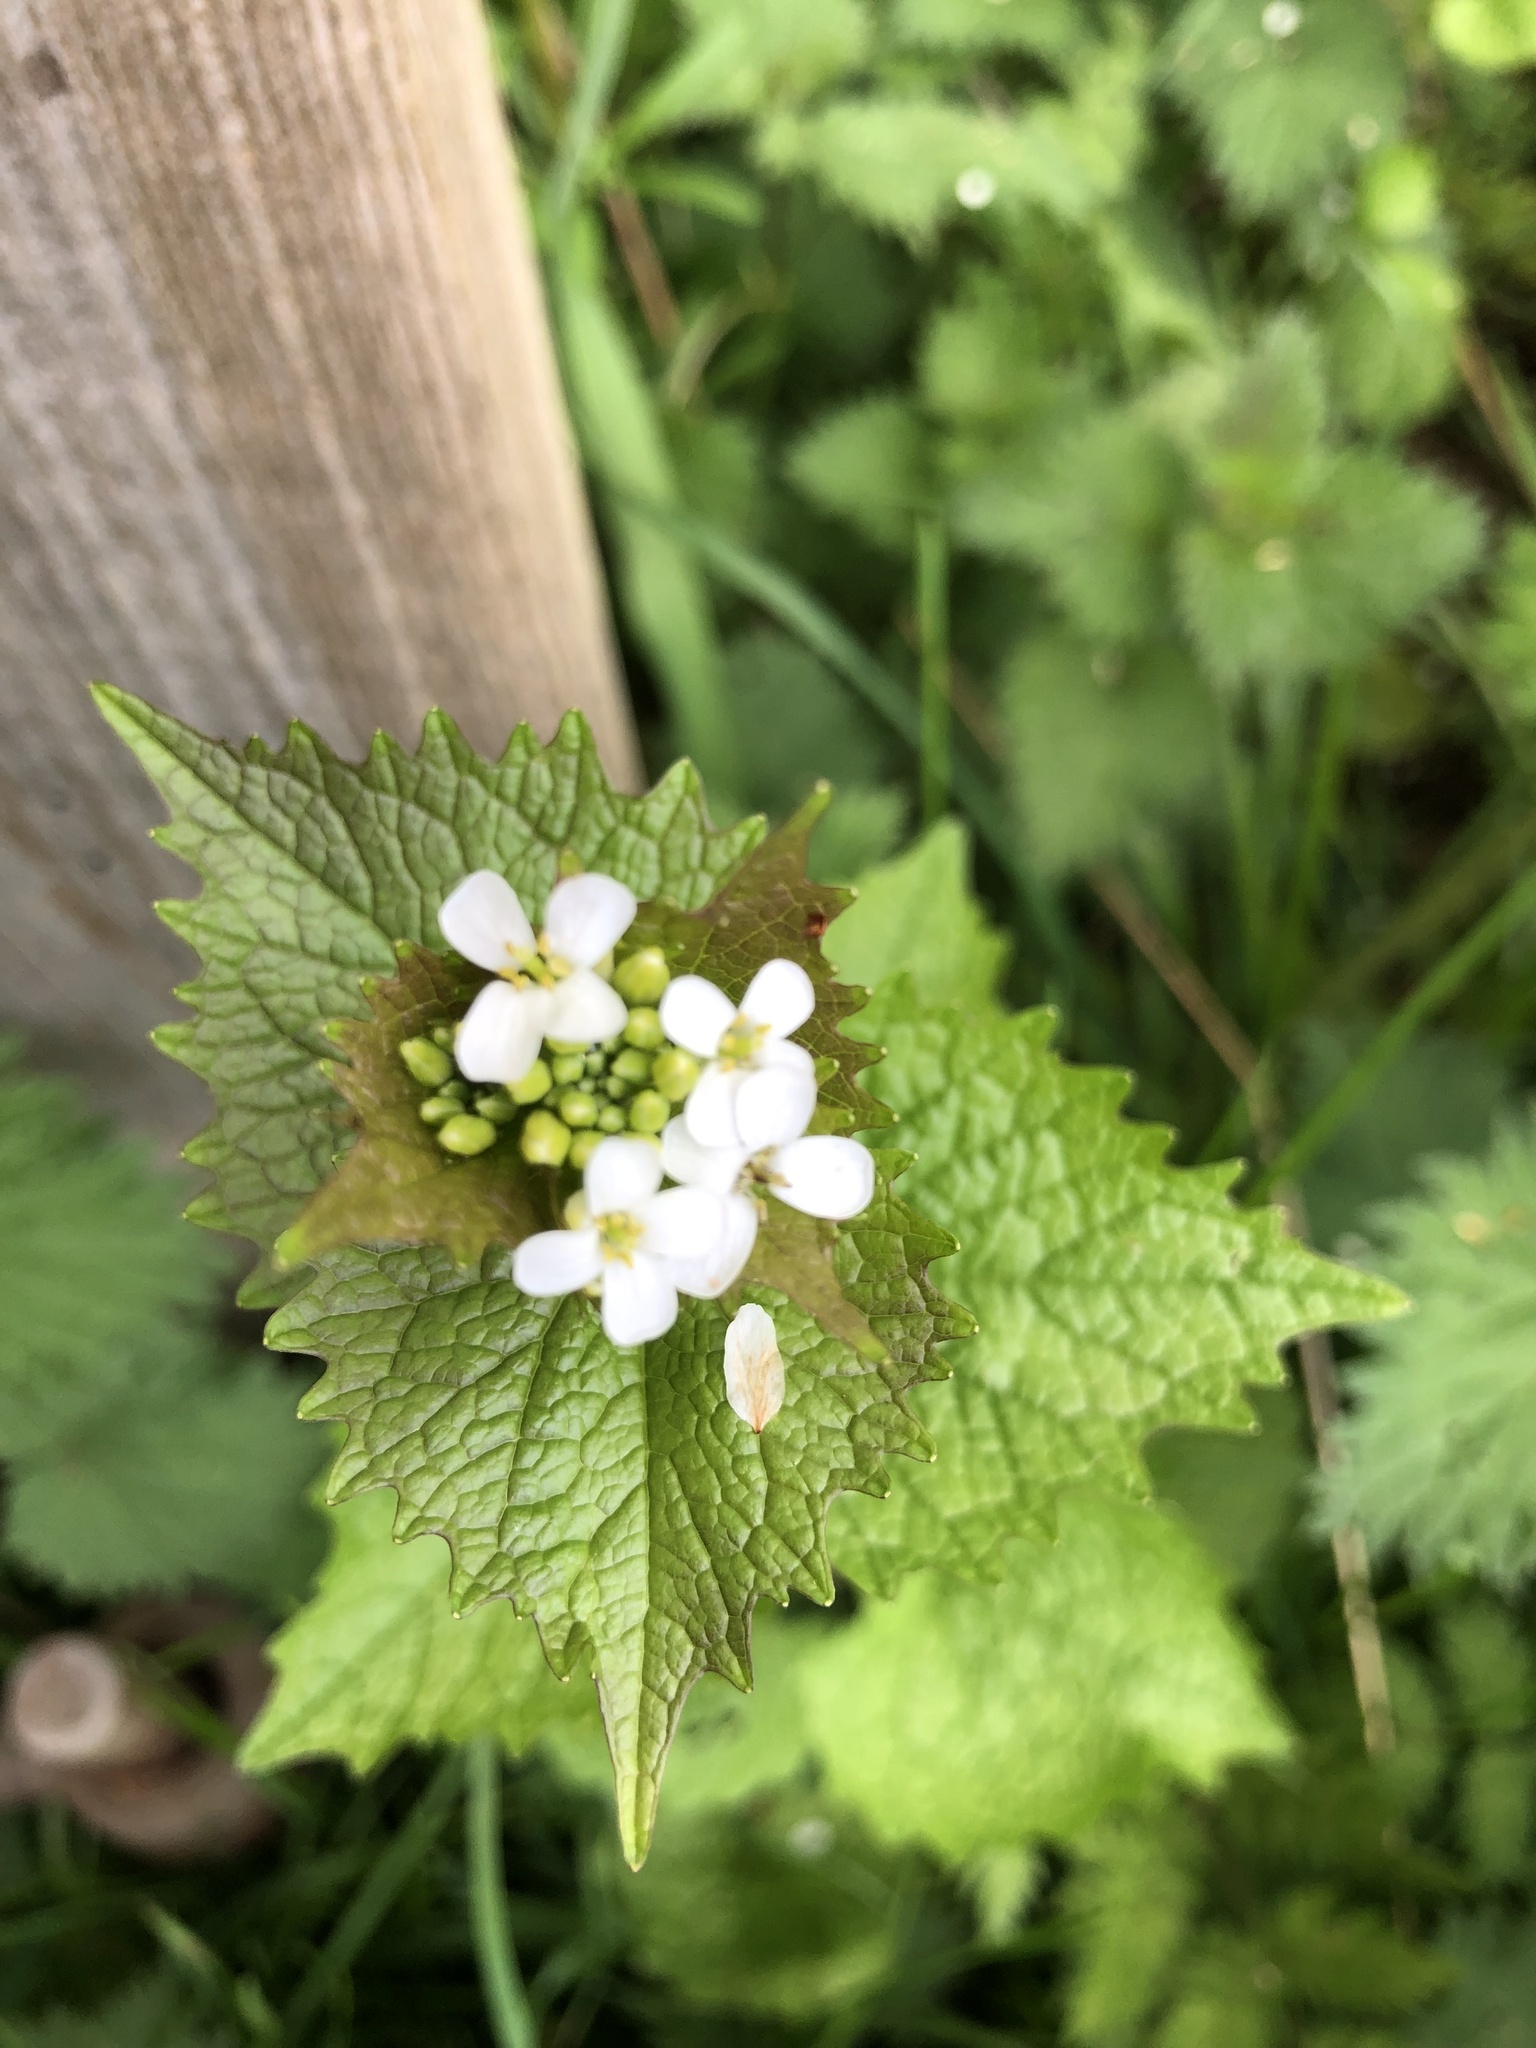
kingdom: Plantae
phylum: Tracheophyta
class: Magnoliopsida
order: Brassicales
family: Brassicaceae
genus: Alliaria
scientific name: Alliaria petiolata
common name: Garlic mustard
